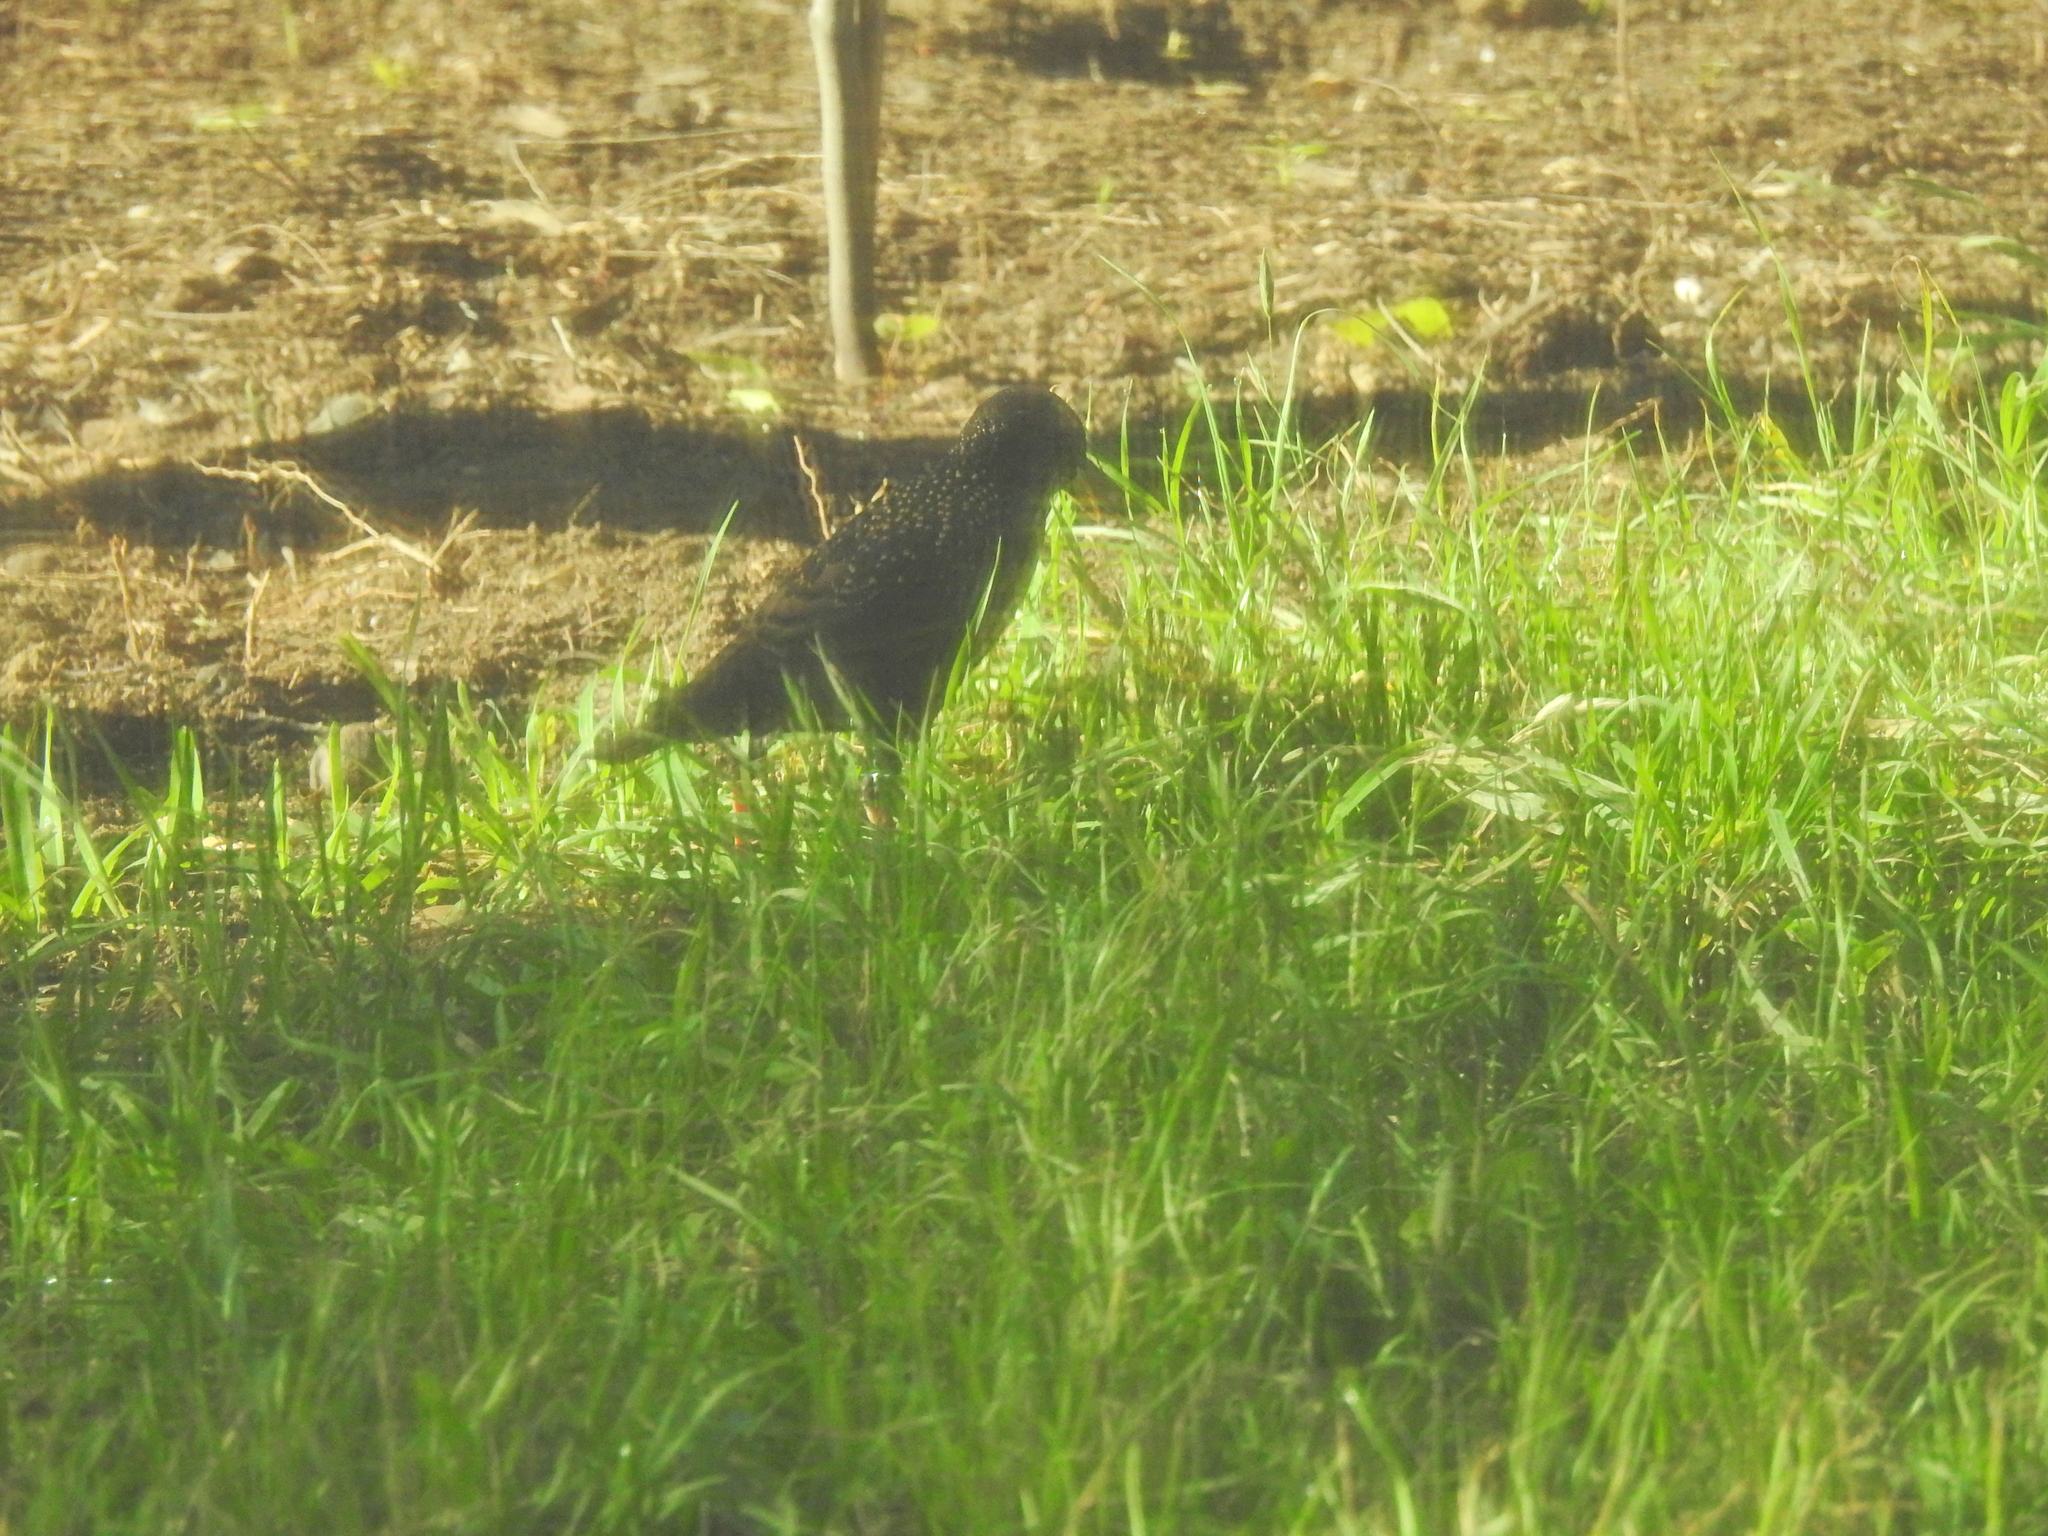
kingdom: Animalia
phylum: Chordata
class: Aves
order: Passeriformes
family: Sturnidae
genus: Sturnus
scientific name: Sturnus vulgaris
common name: Common starling
